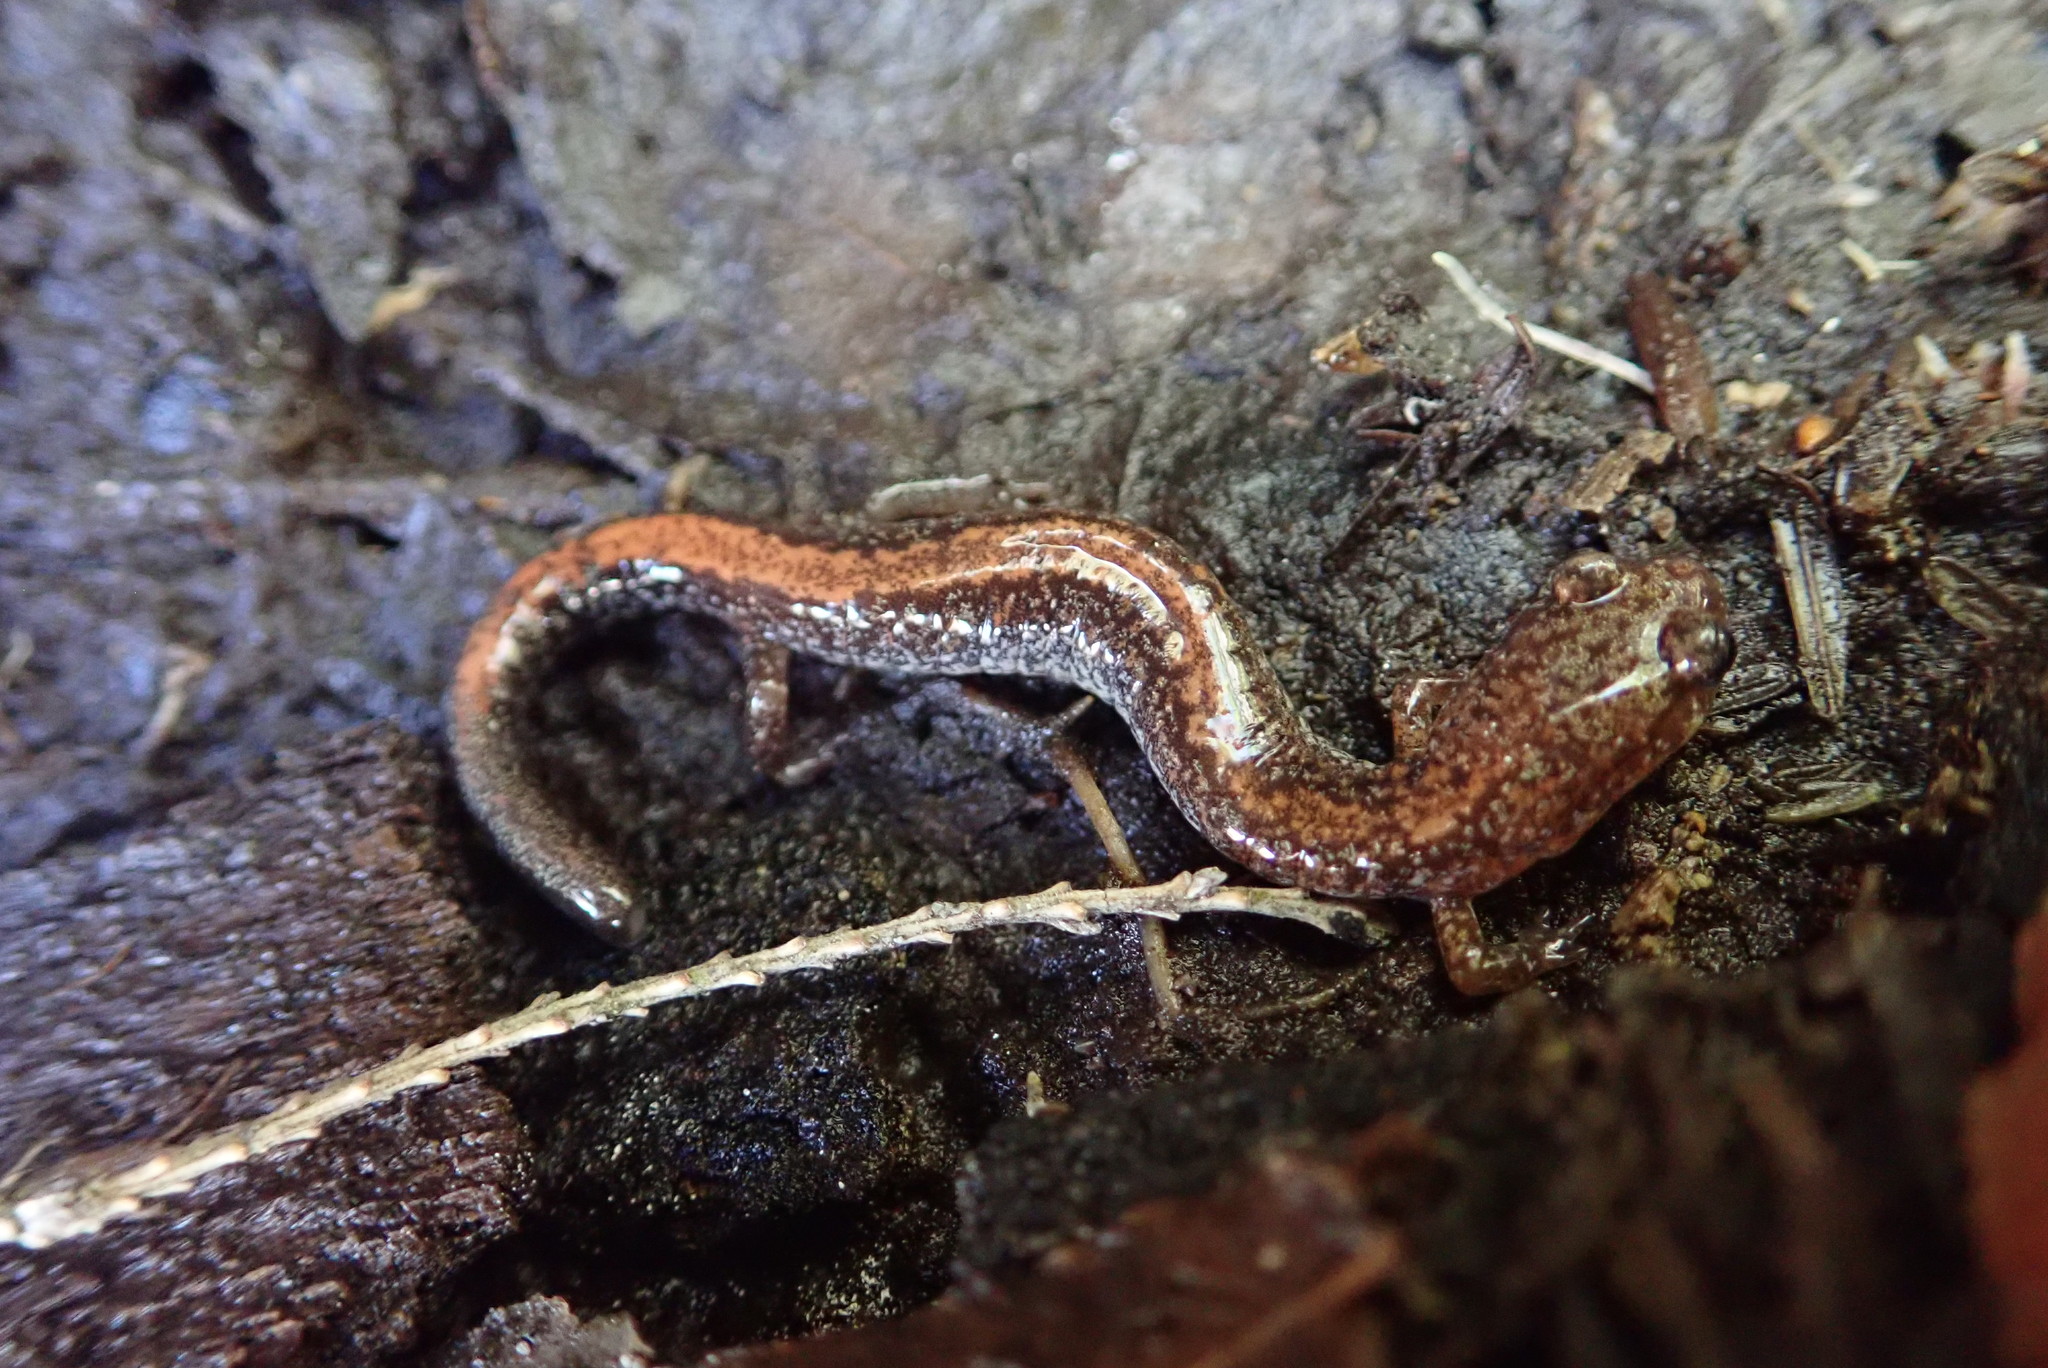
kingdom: Animalia
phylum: Chordata
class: Amphibia
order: Caudata
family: Plethodontidae
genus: Plethodon
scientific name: Plethodon cinereus
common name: Redback salamander
